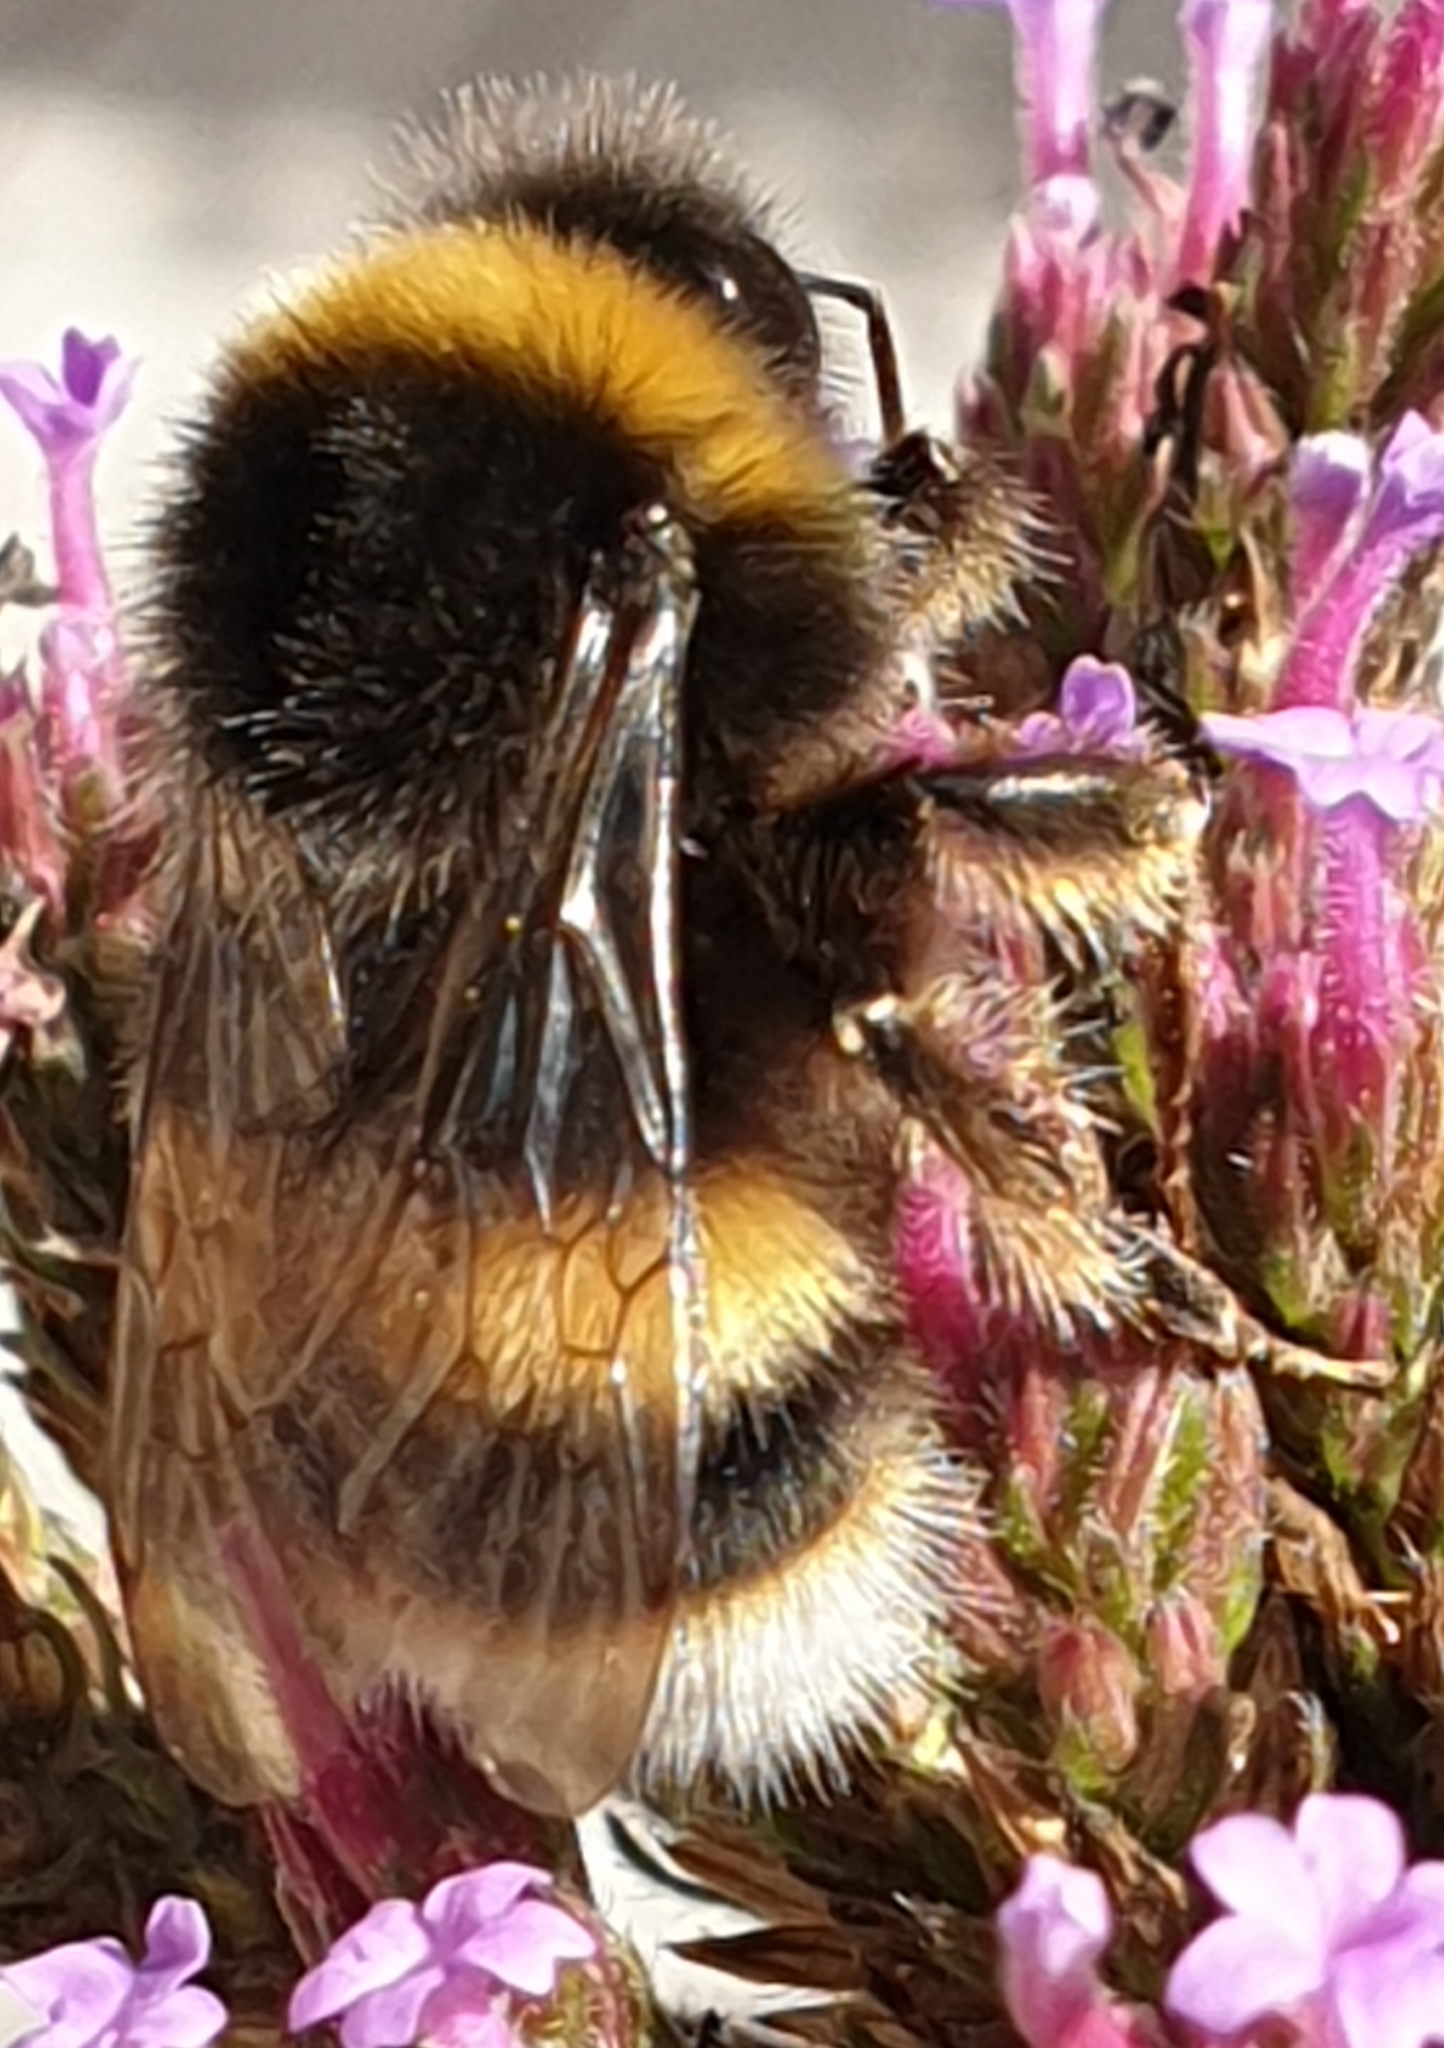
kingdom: Animalia
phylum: Arthropoda
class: Insecta
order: Hymenoptera
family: Apidae
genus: Bombus
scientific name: Bombus terrestris
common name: Buff-tailed bumblebee
